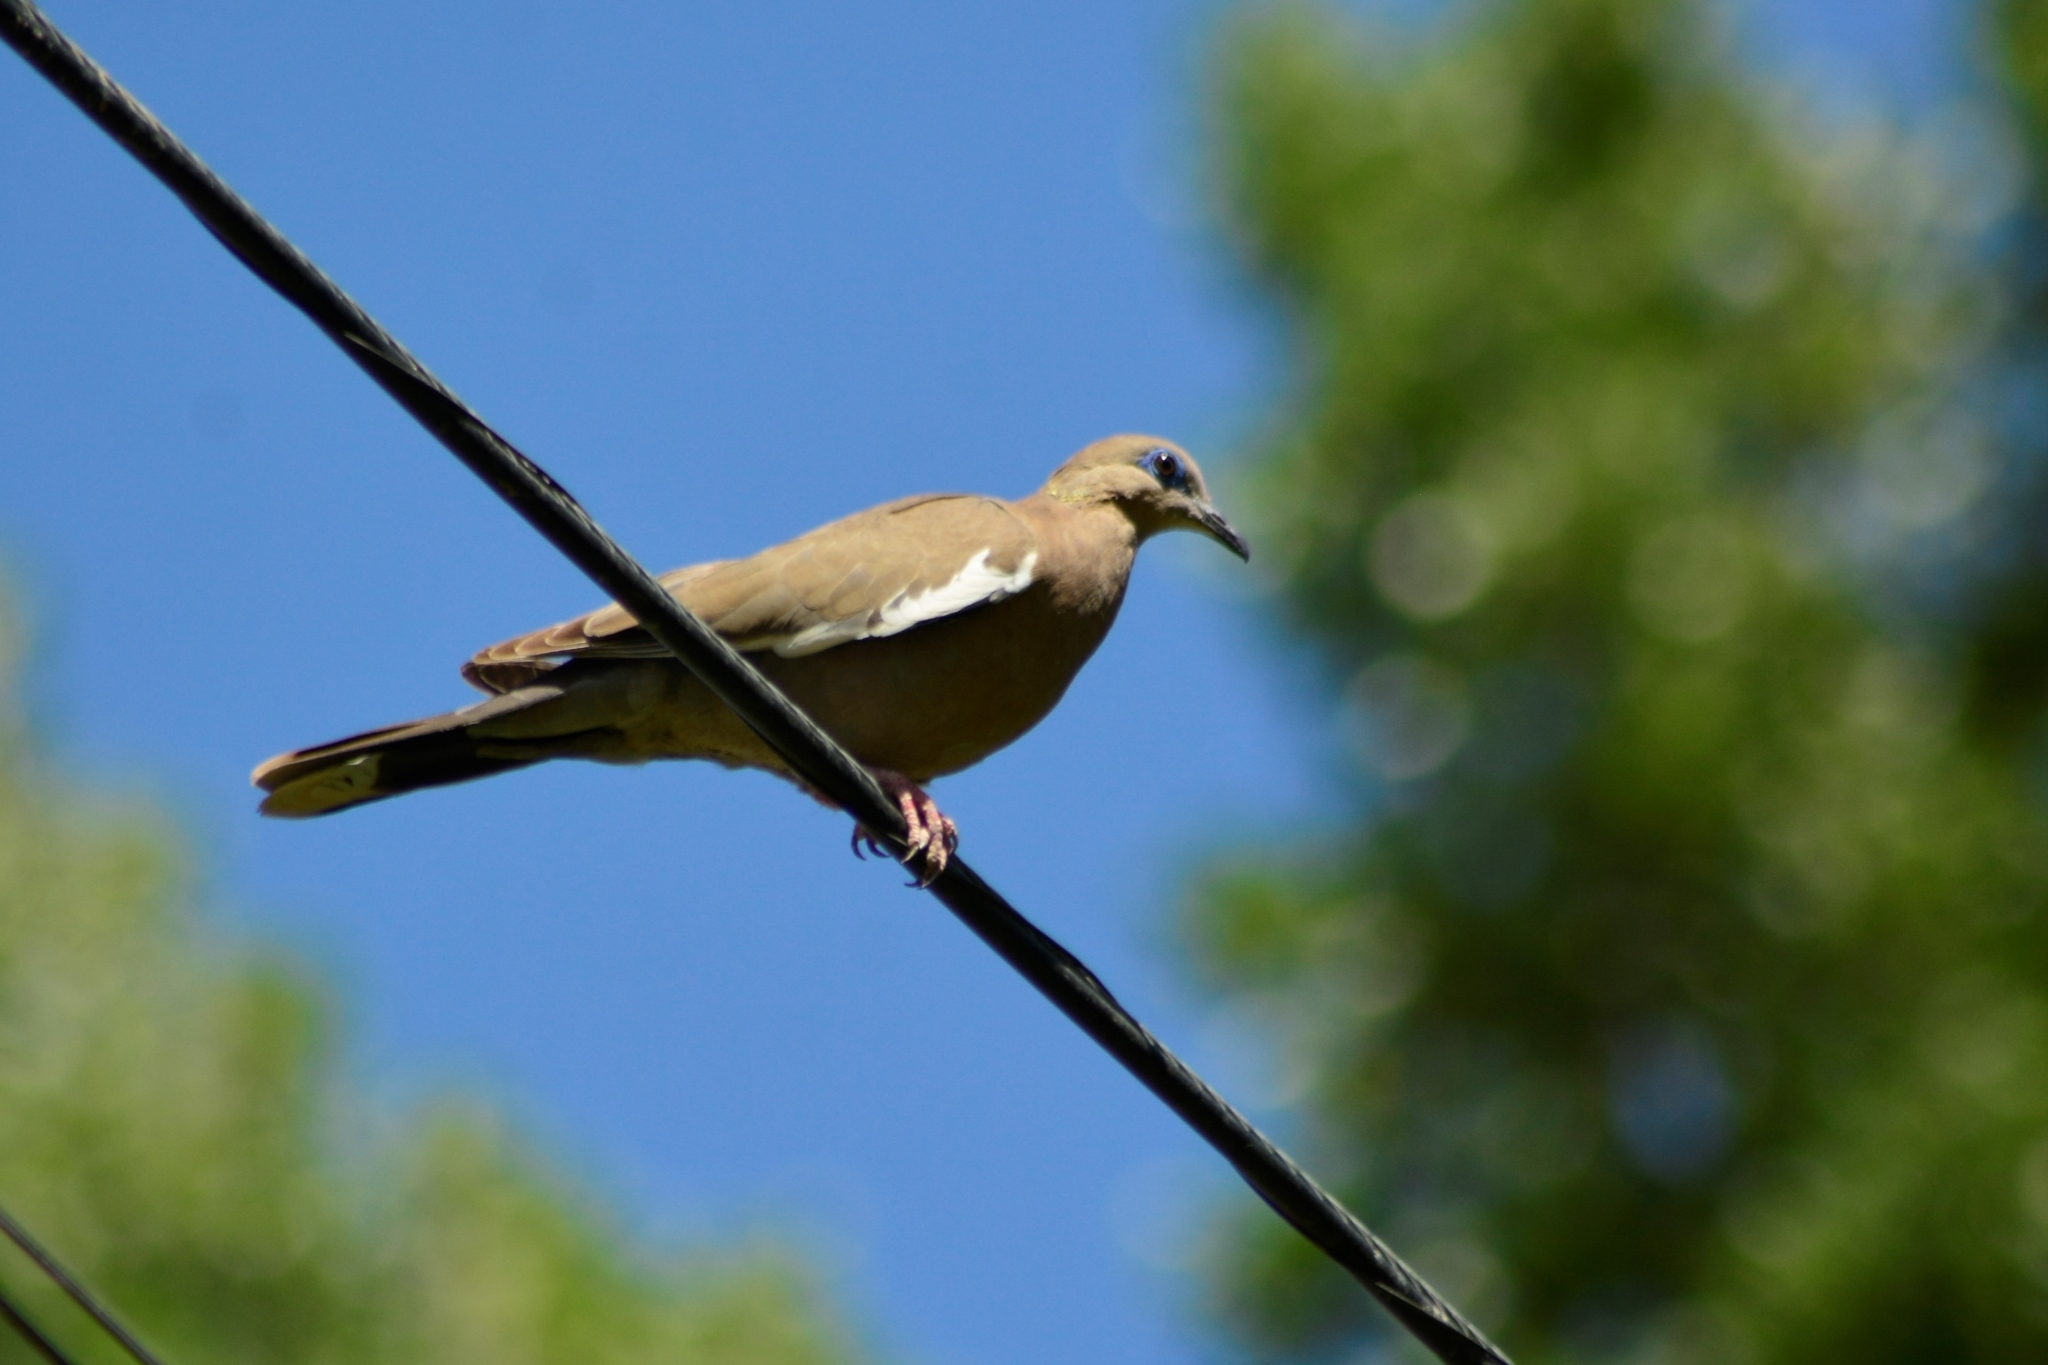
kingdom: Animalia
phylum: Chordata
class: Aves
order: Columbiformes
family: Columbidae
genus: Zenaida
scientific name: Zenaida meloda
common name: West peruvian dove
